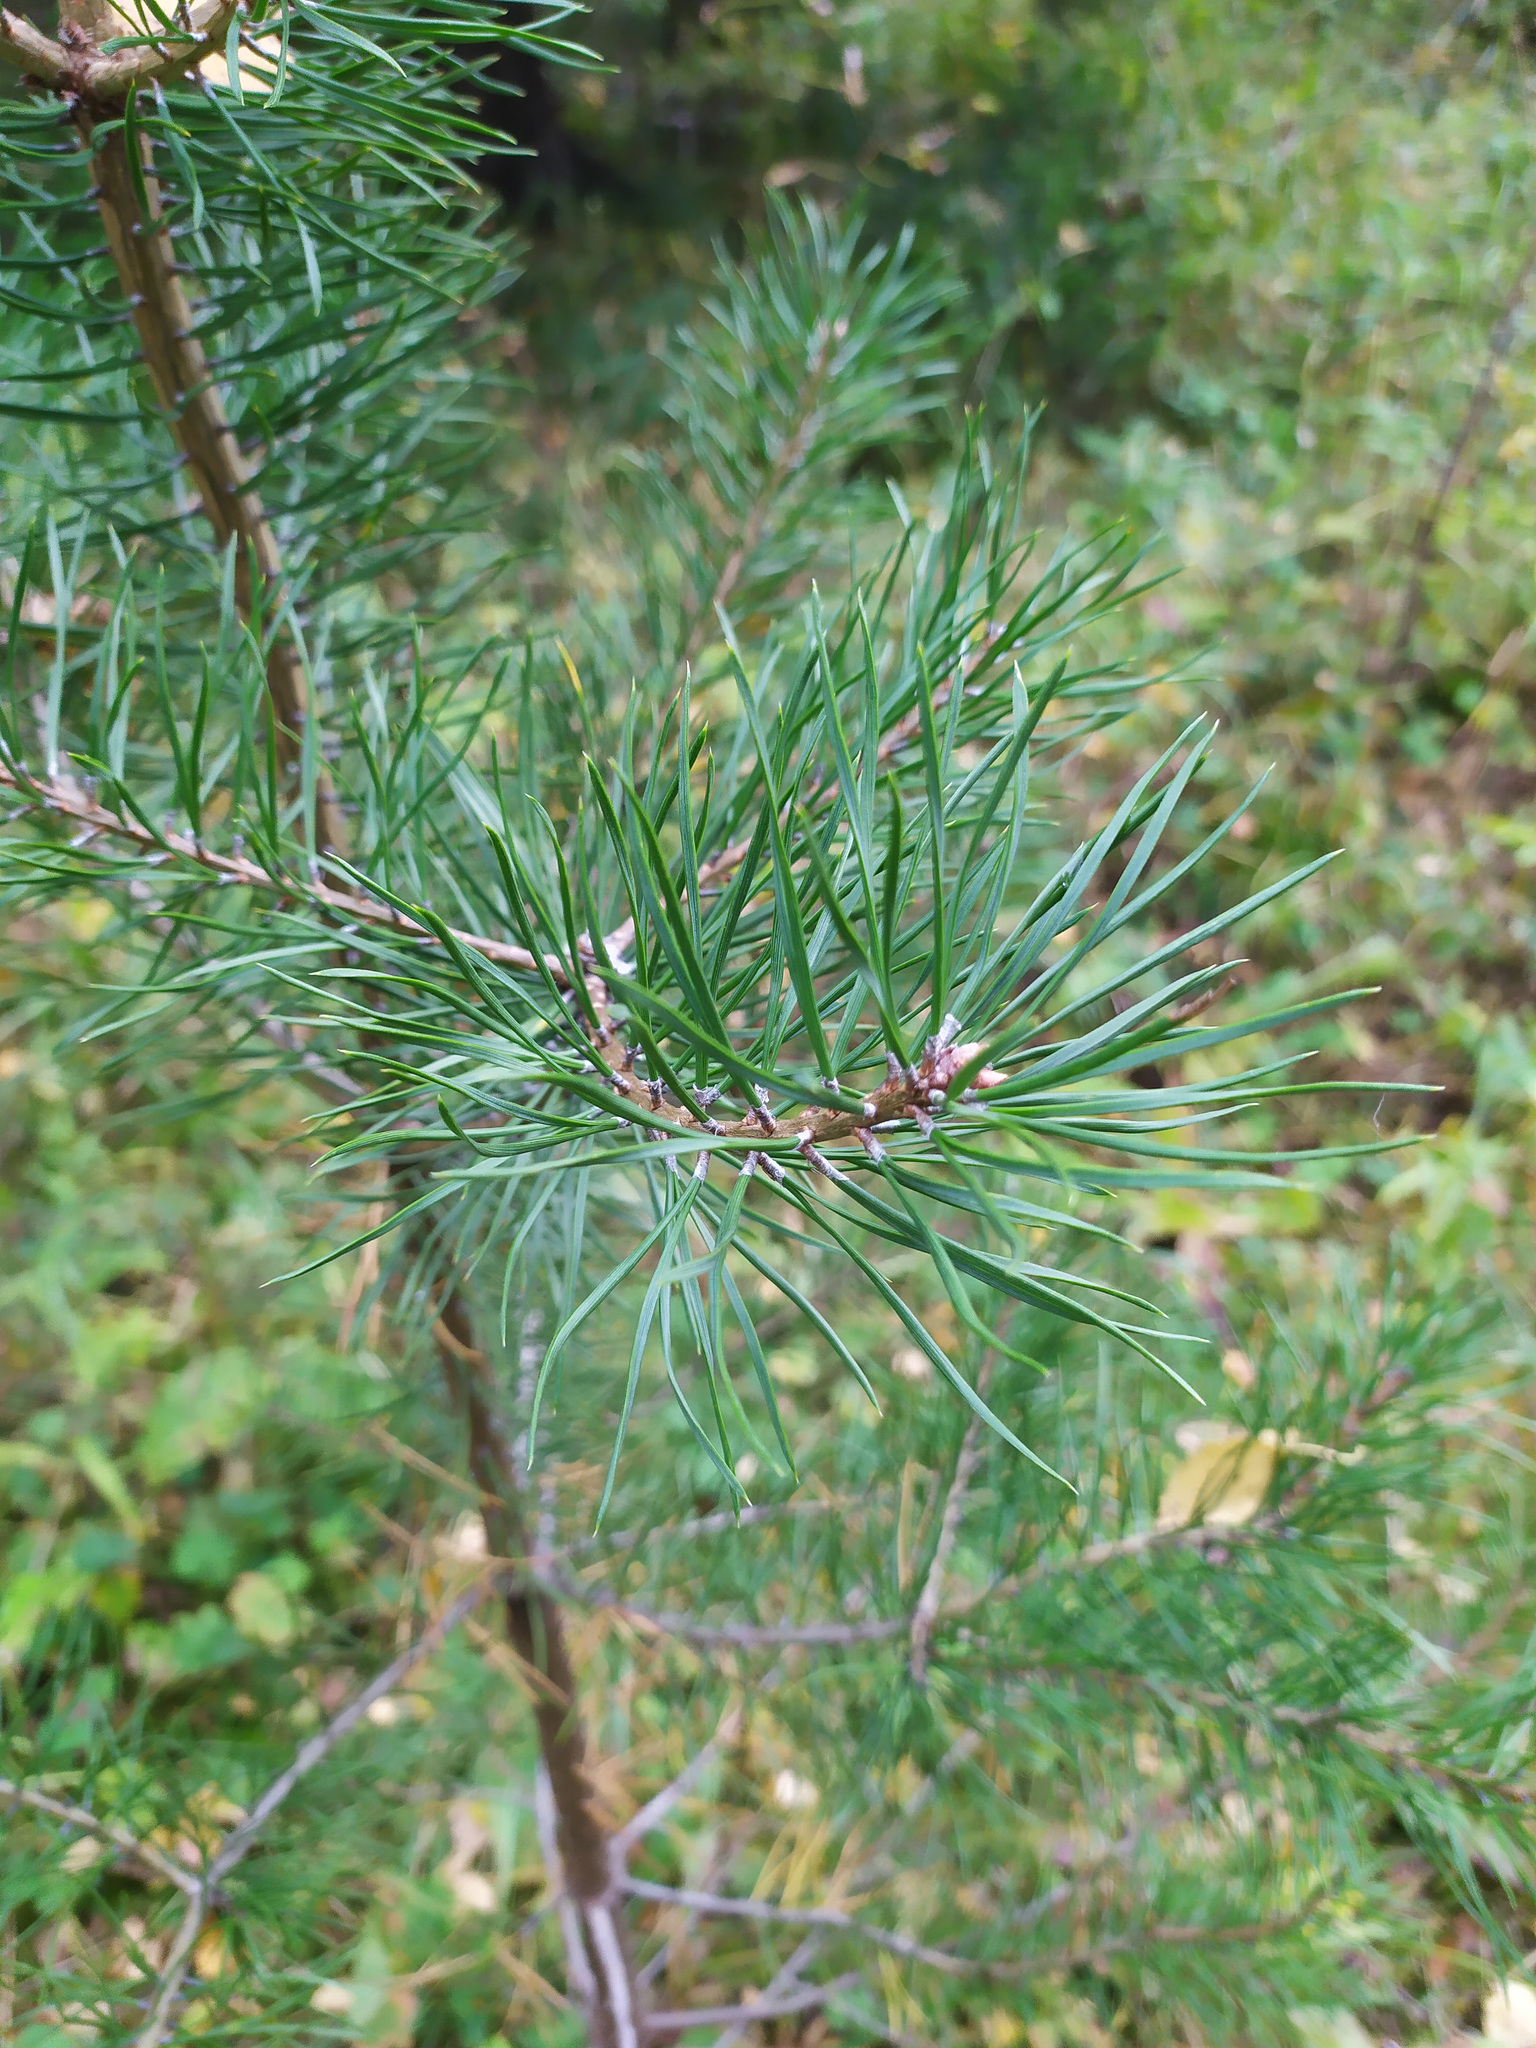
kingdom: Plantae
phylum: Tracheophyta
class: Pinopsida
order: Pinales
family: Pinaceae
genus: Pinus
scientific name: Pinus sylvestris
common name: Scots pine
